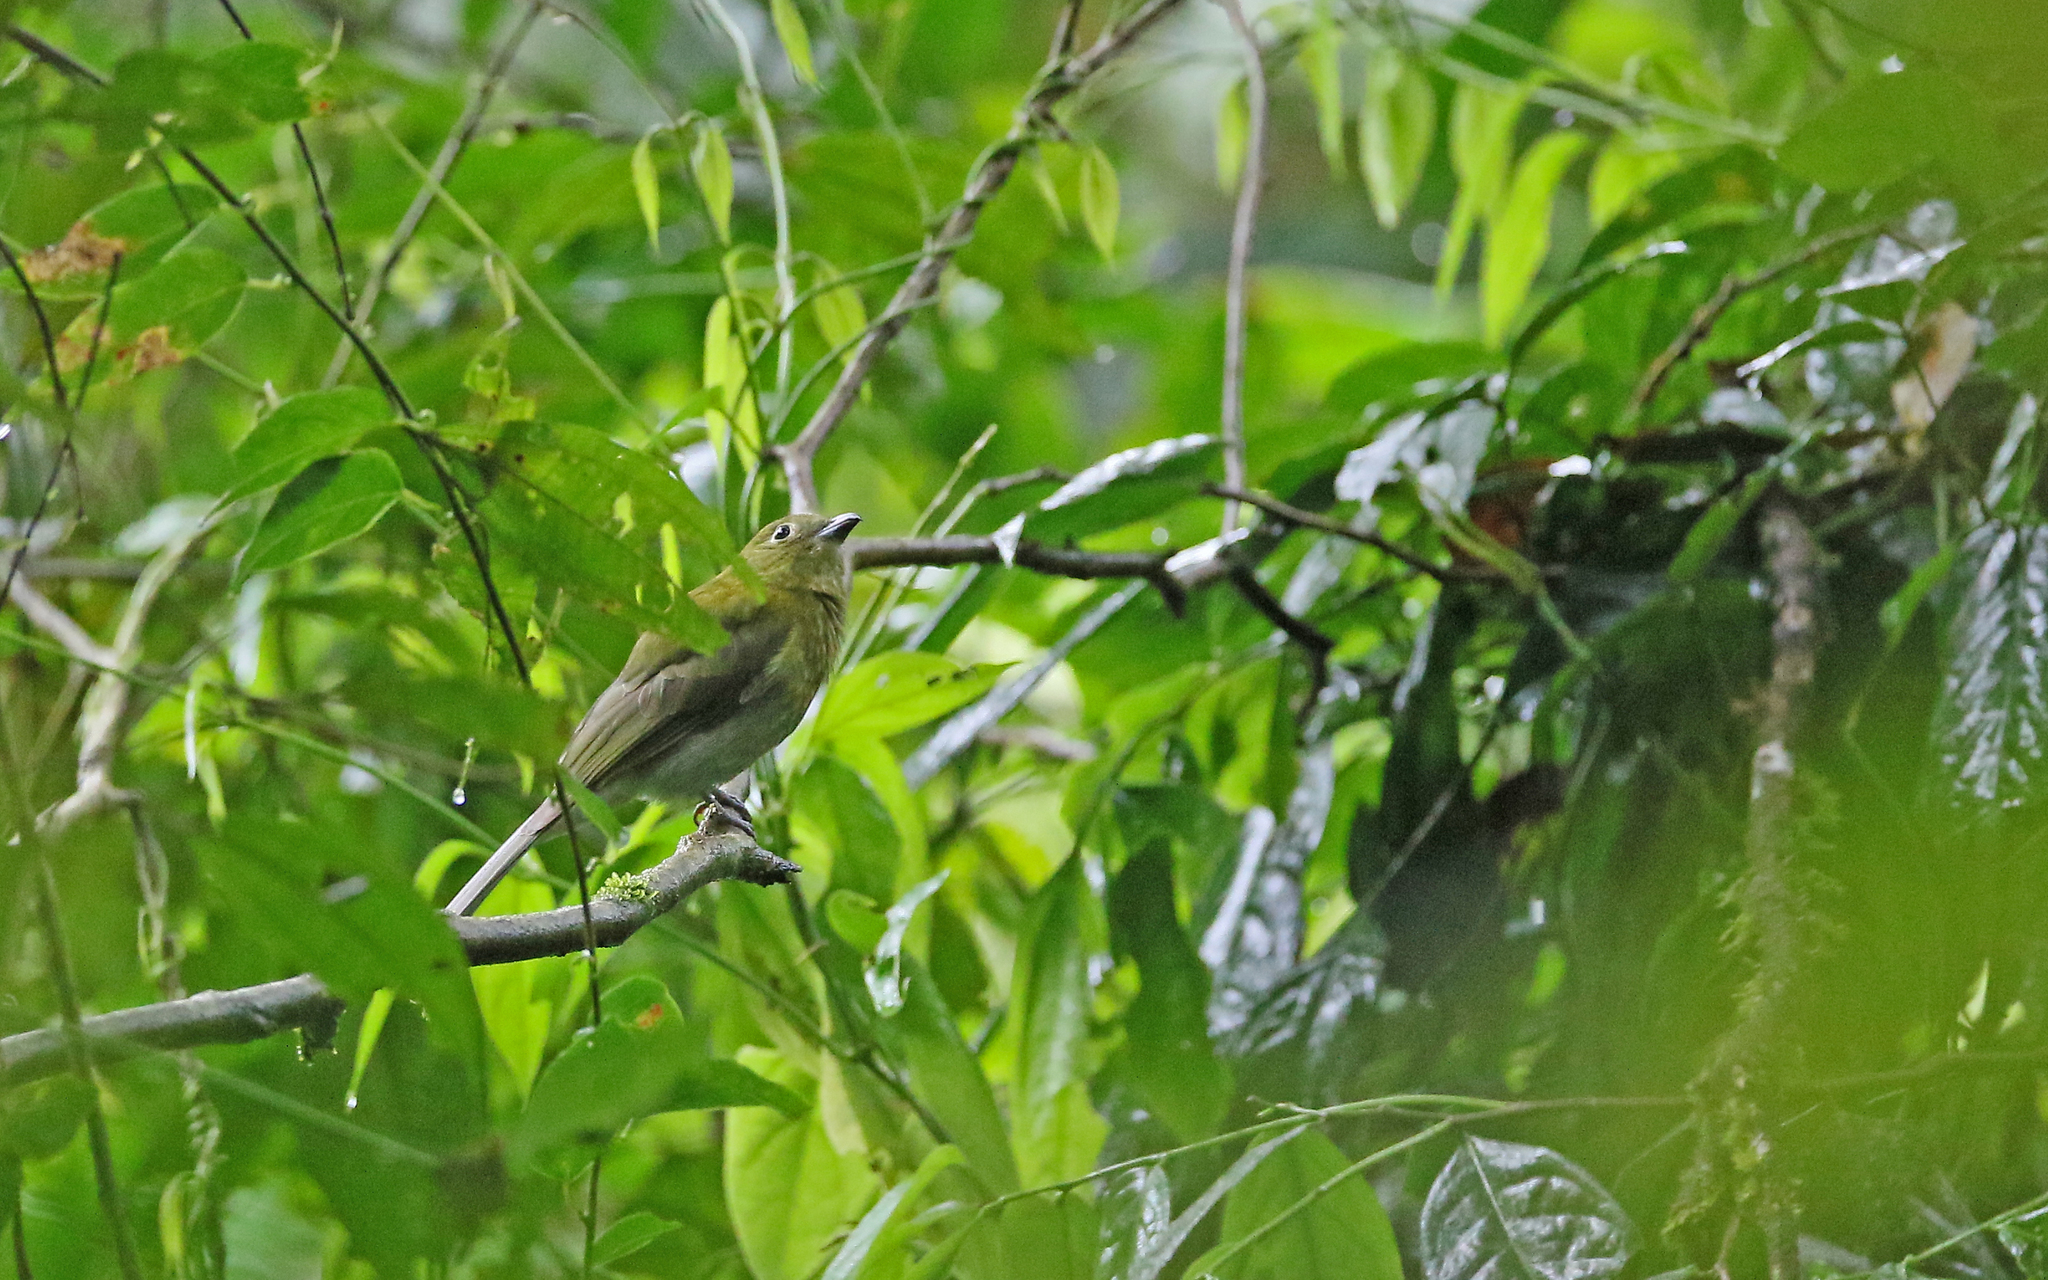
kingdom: Animalia
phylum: Chordata
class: Aves
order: Passeriformes
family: Cotingidae
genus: Snowornis
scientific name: Snowornis subalaris
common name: Grey-tailed piha
